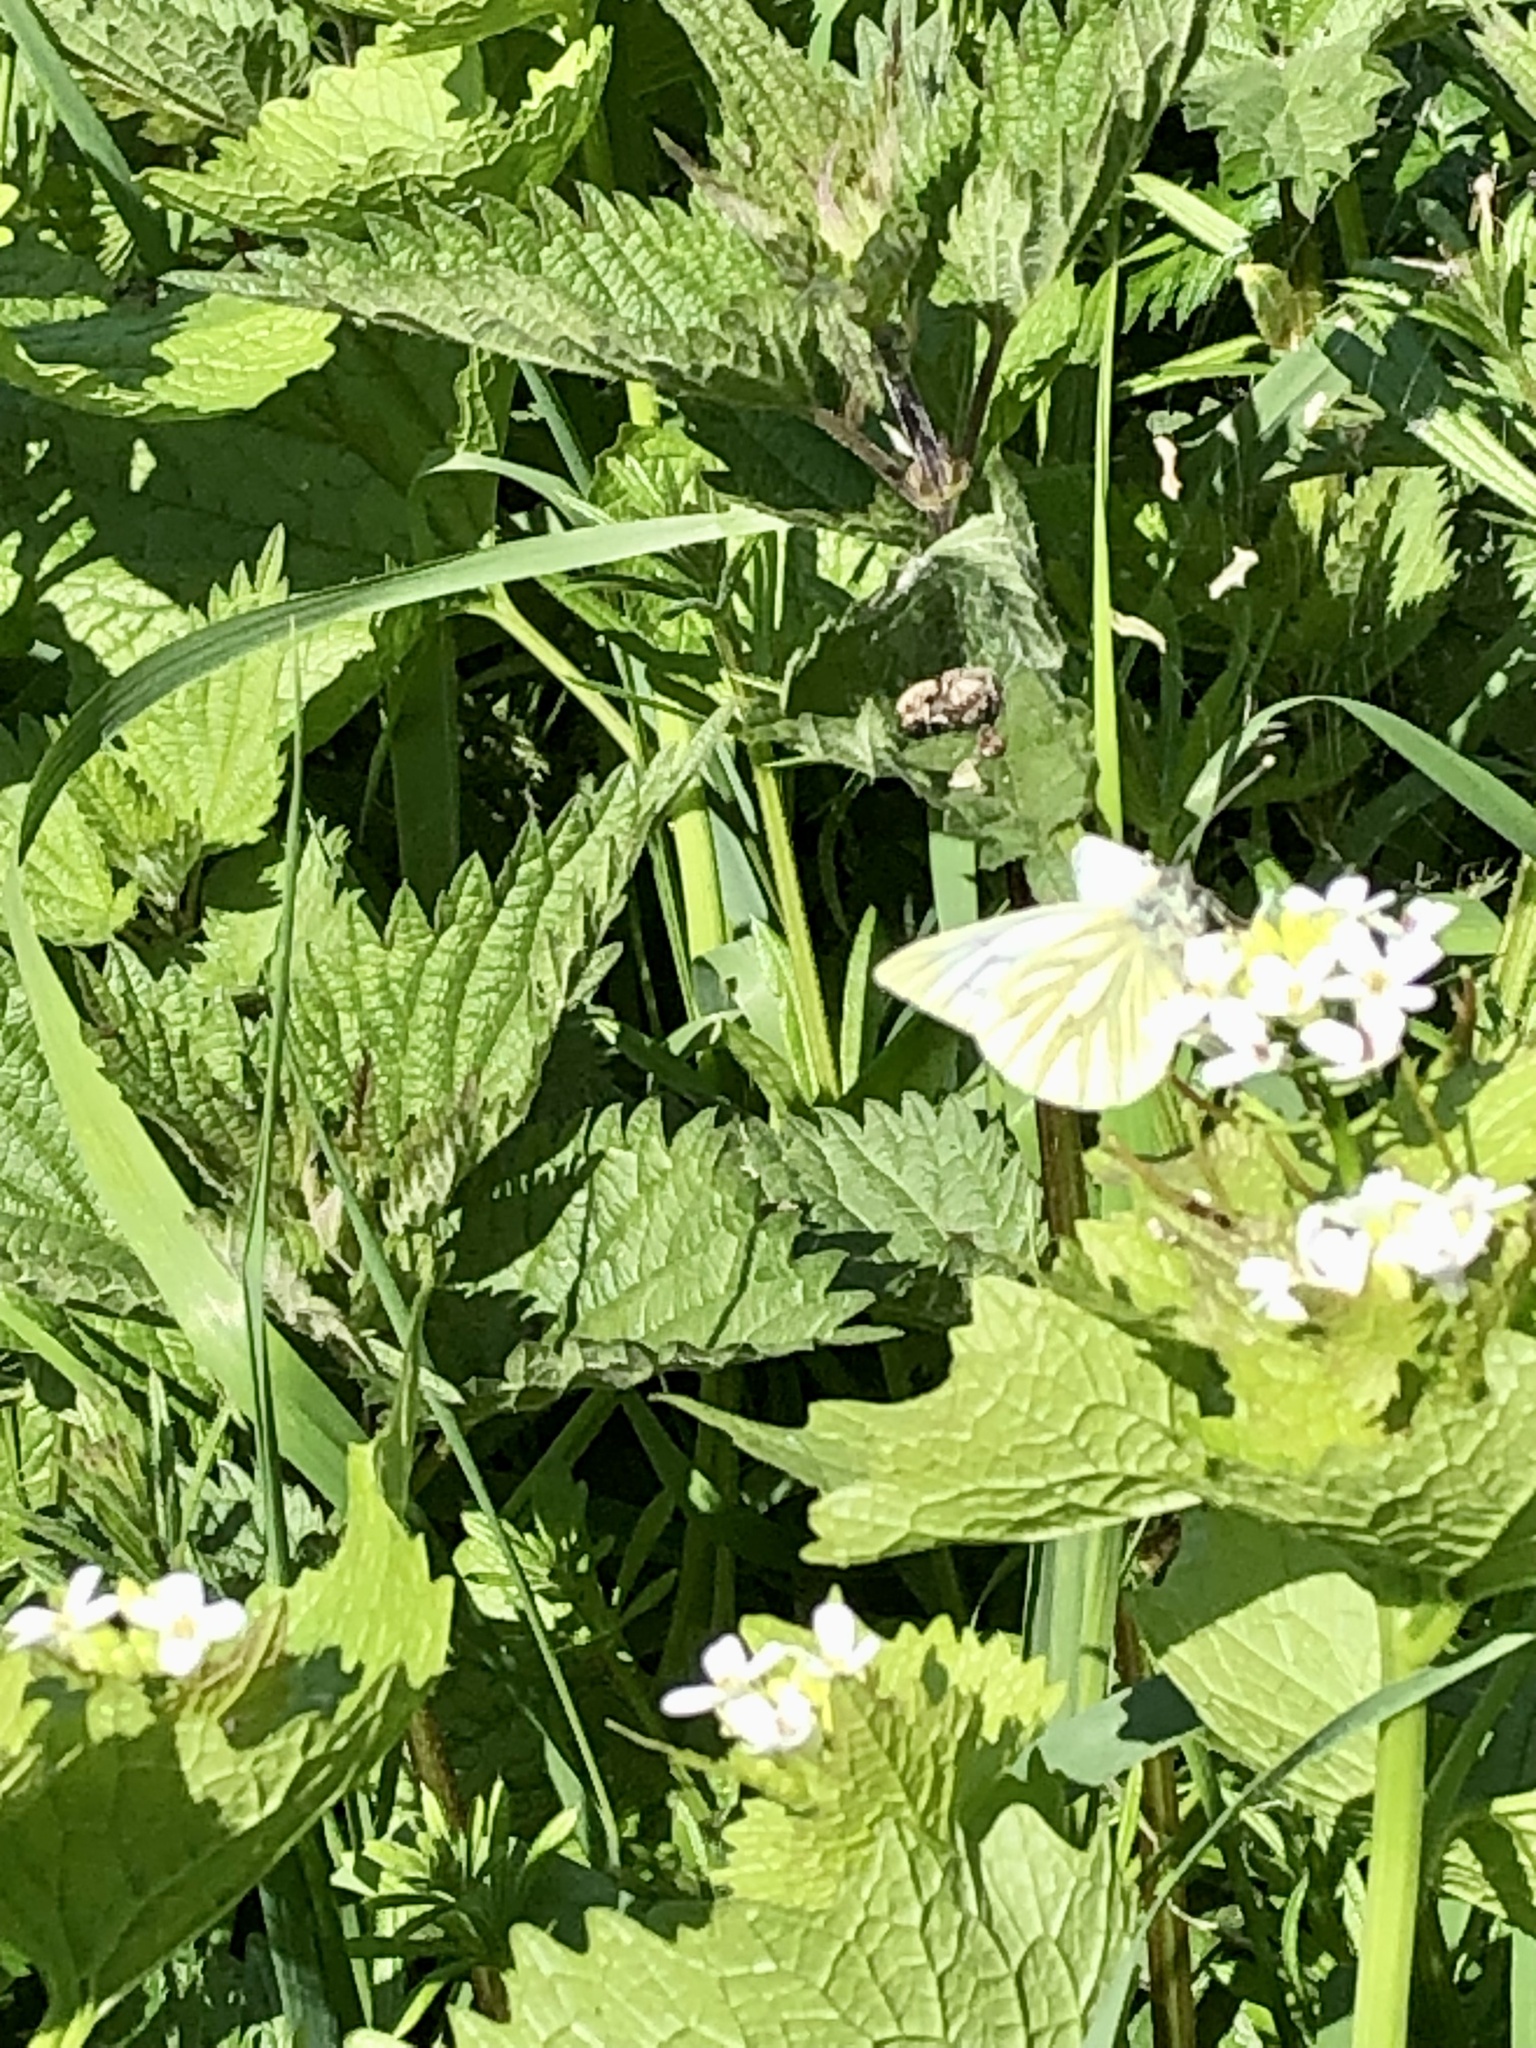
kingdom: Animalia
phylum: Arthropoda
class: Insecta
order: Lepidoptera
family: Pieridae
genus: Pieris
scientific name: Pieris napi
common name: Green-veined white
